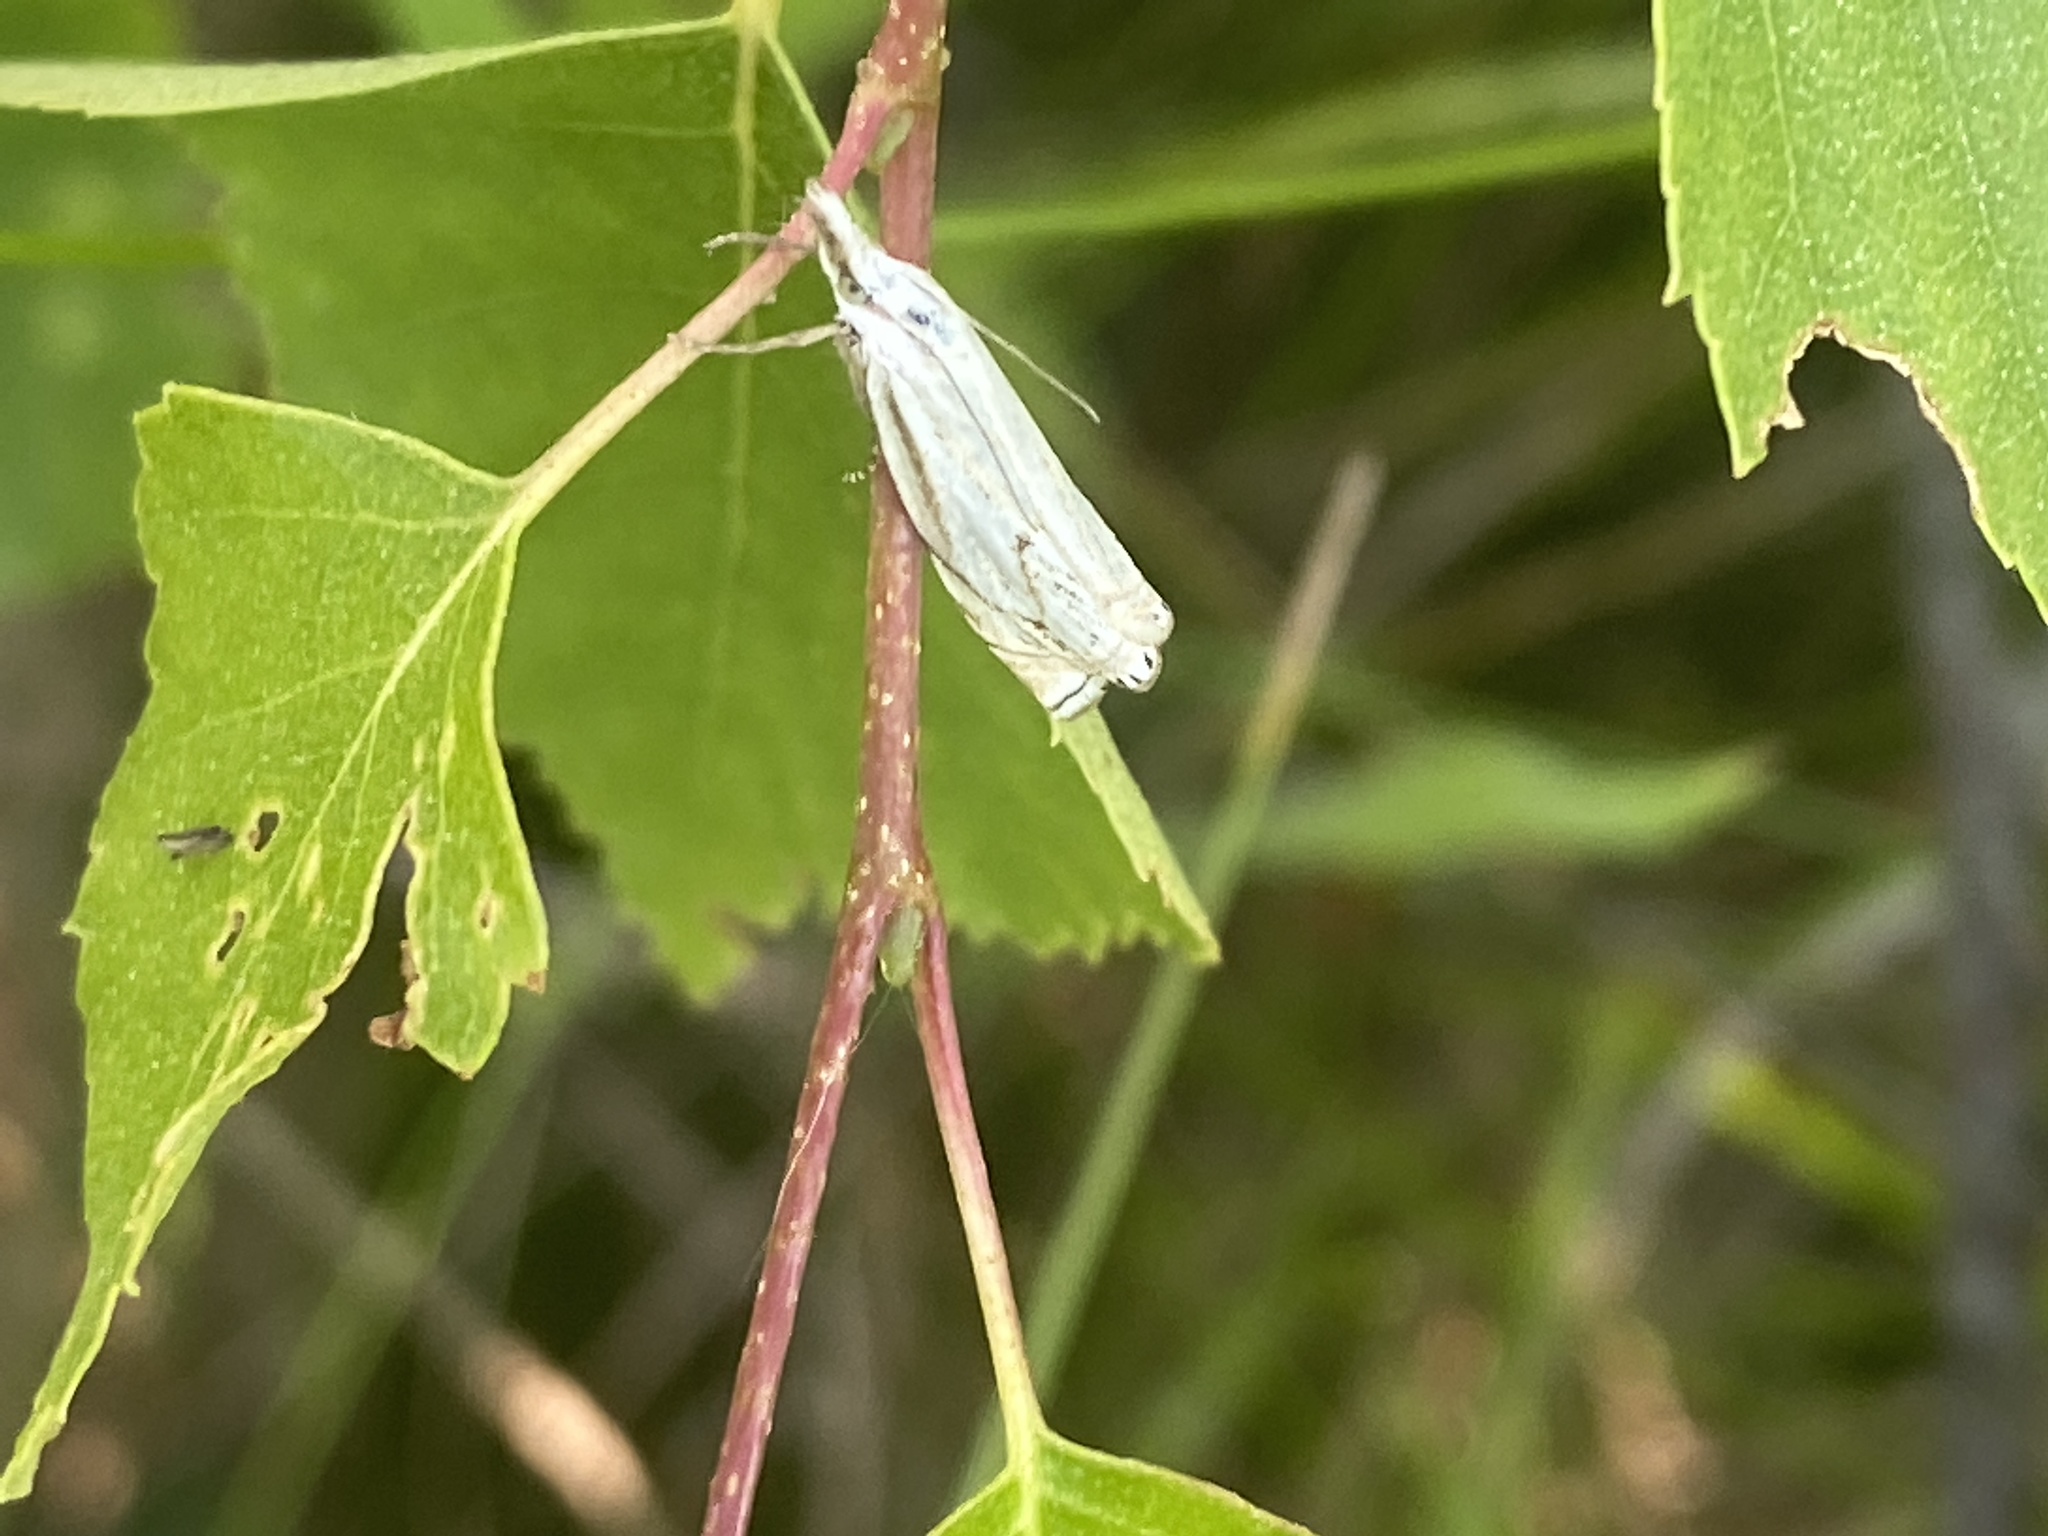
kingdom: Animalia
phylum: Arthropoda
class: Insecta
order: Lepidoptera
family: Crambidae
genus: Crambus
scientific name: Crambus nemorella
